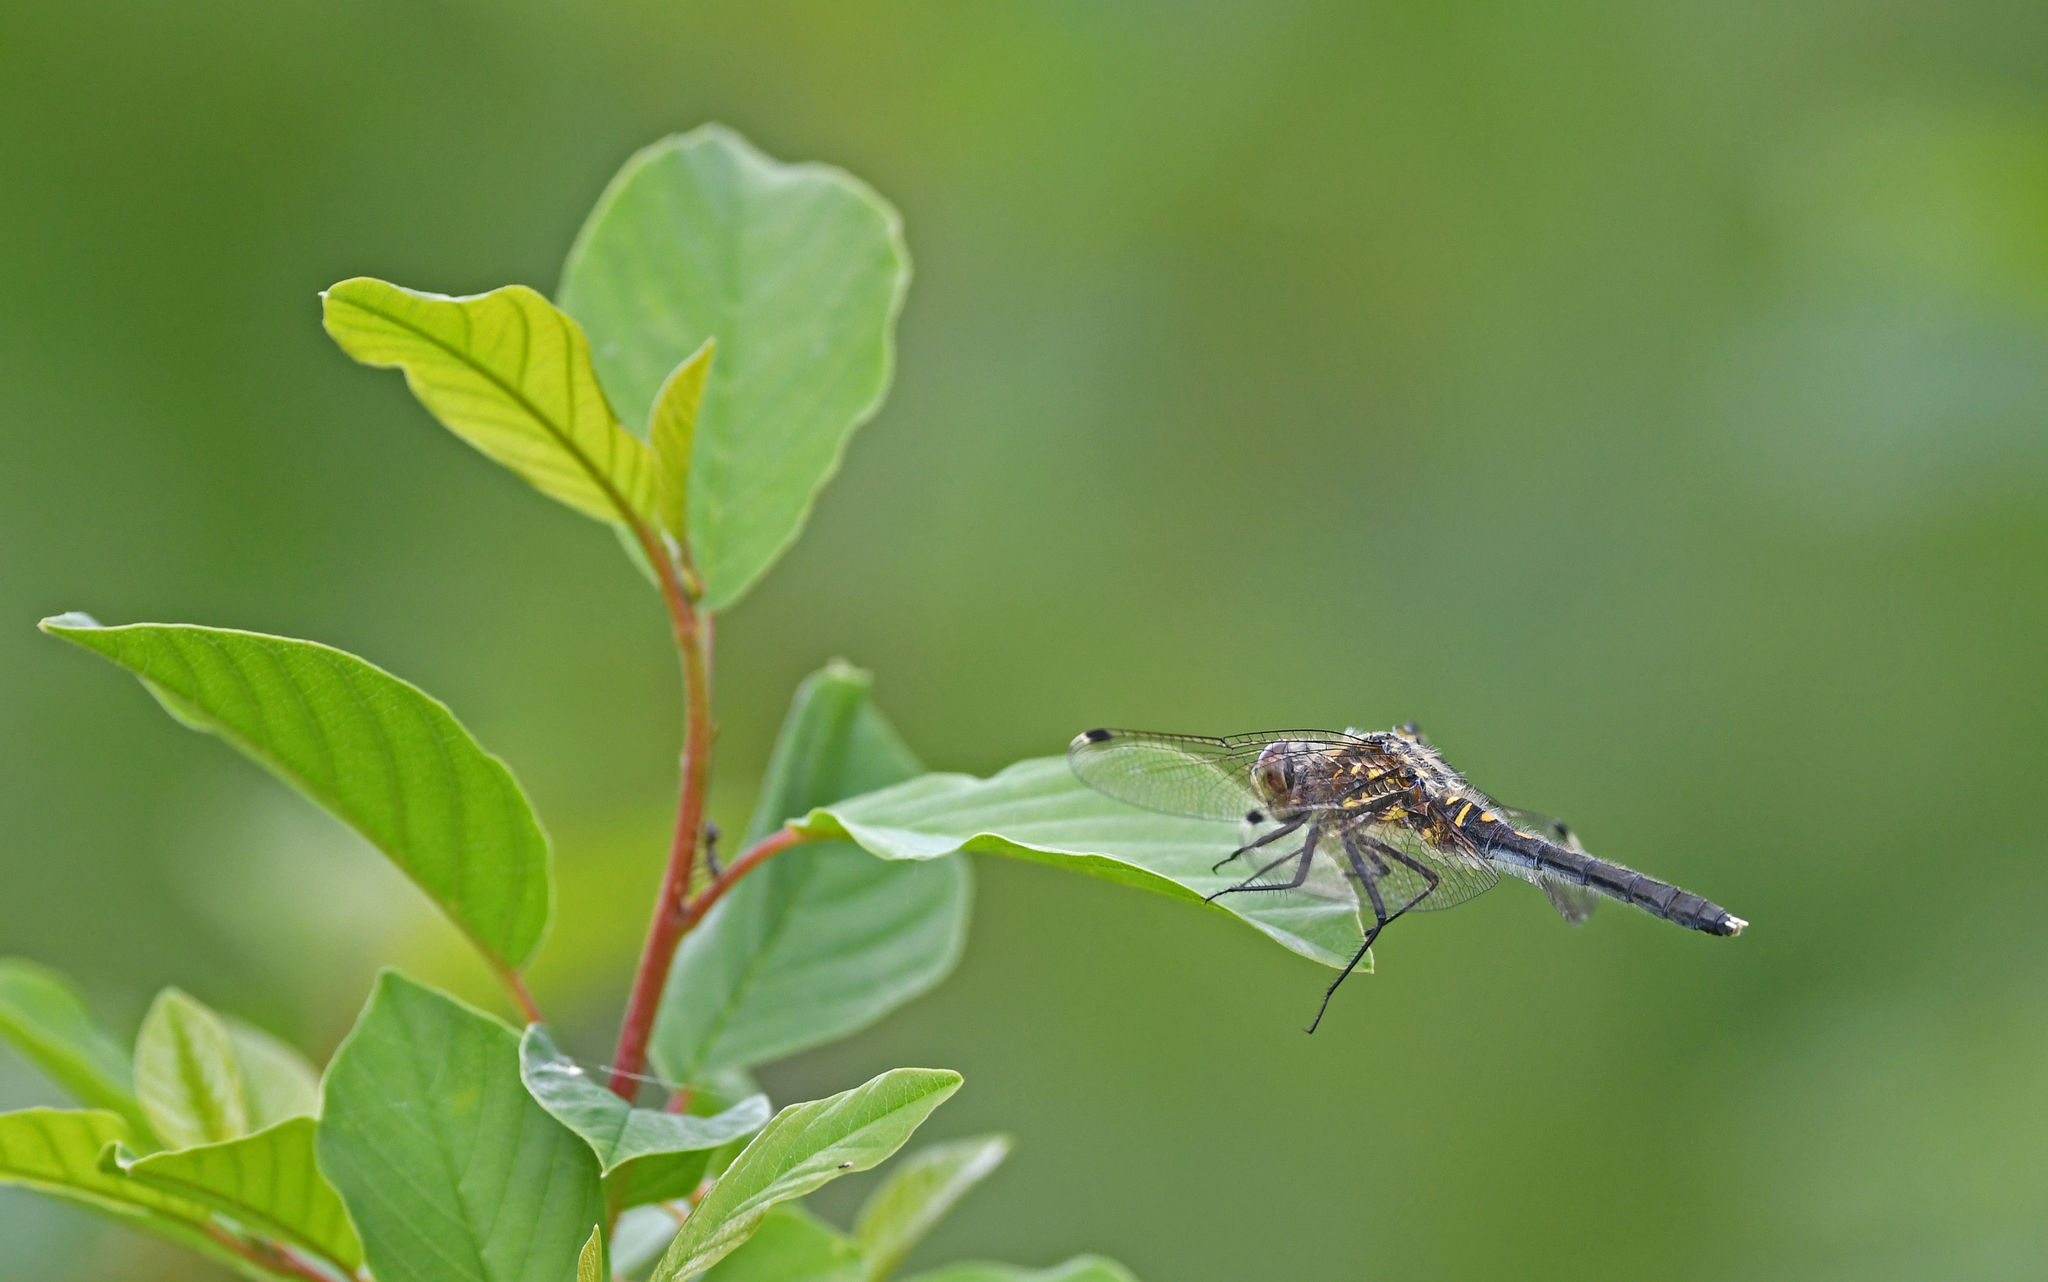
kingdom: Animalia
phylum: Arthropoda
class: Insecta
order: Odonata
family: Libellulidae
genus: Leucorrhinia
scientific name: Leucorrhinia albifrons
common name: Dark whiteface
